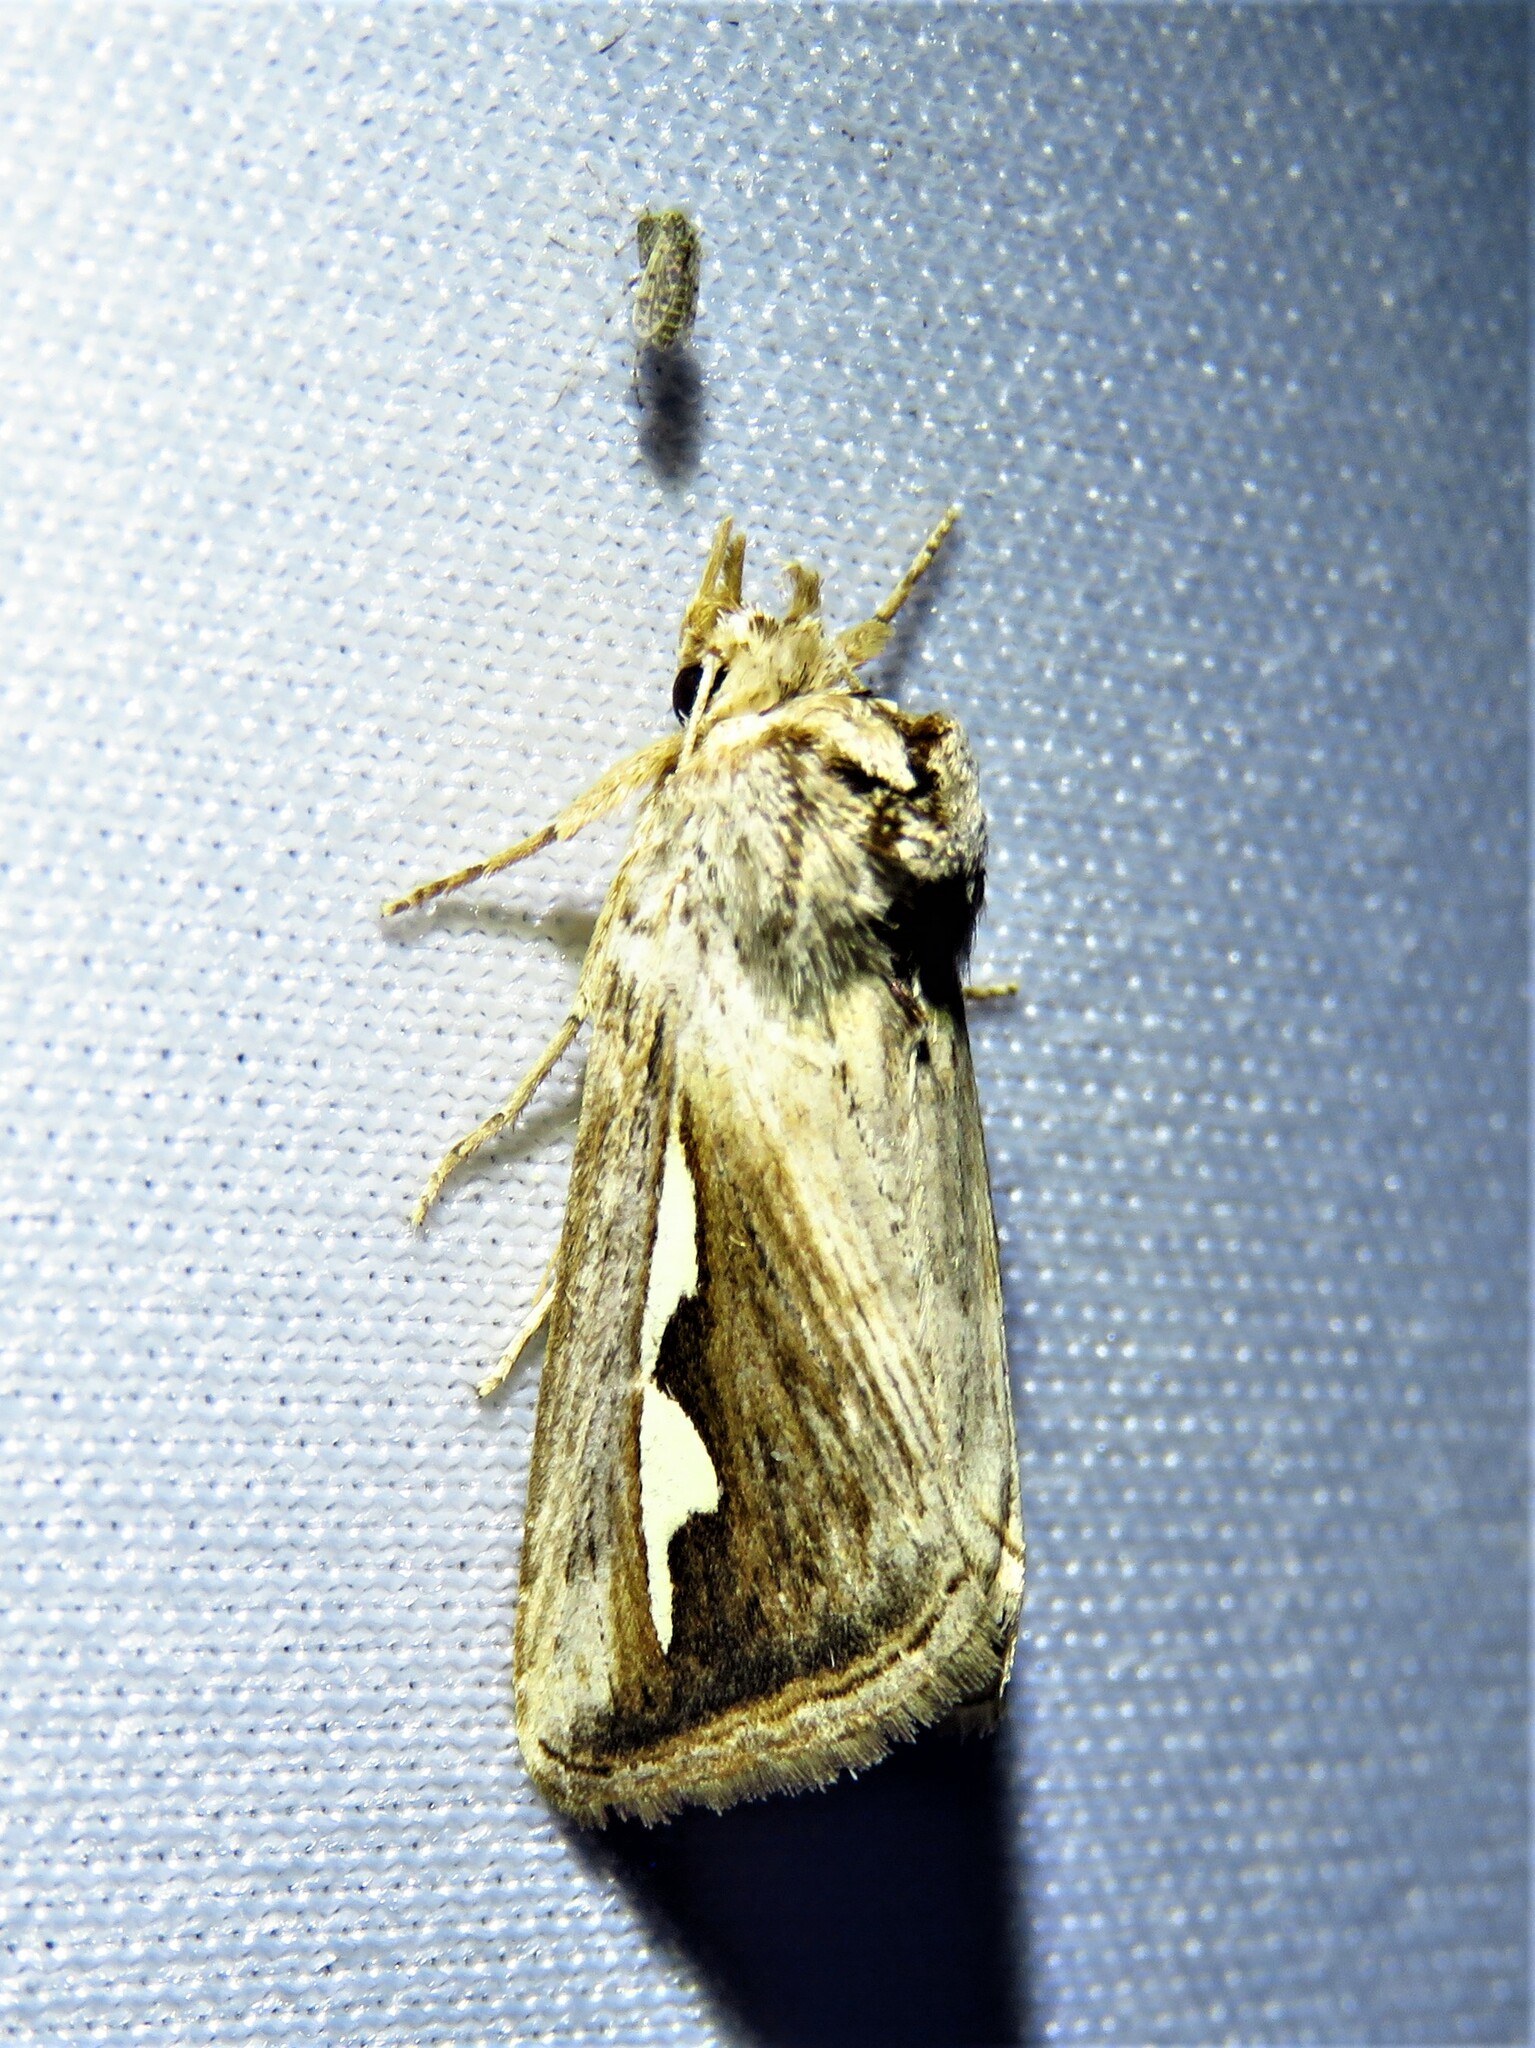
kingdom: Animalia
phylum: Arthropoda
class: Insecta
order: Lepidoptera
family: Notodontidae
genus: Didugua
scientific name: Didugua argentilinea
